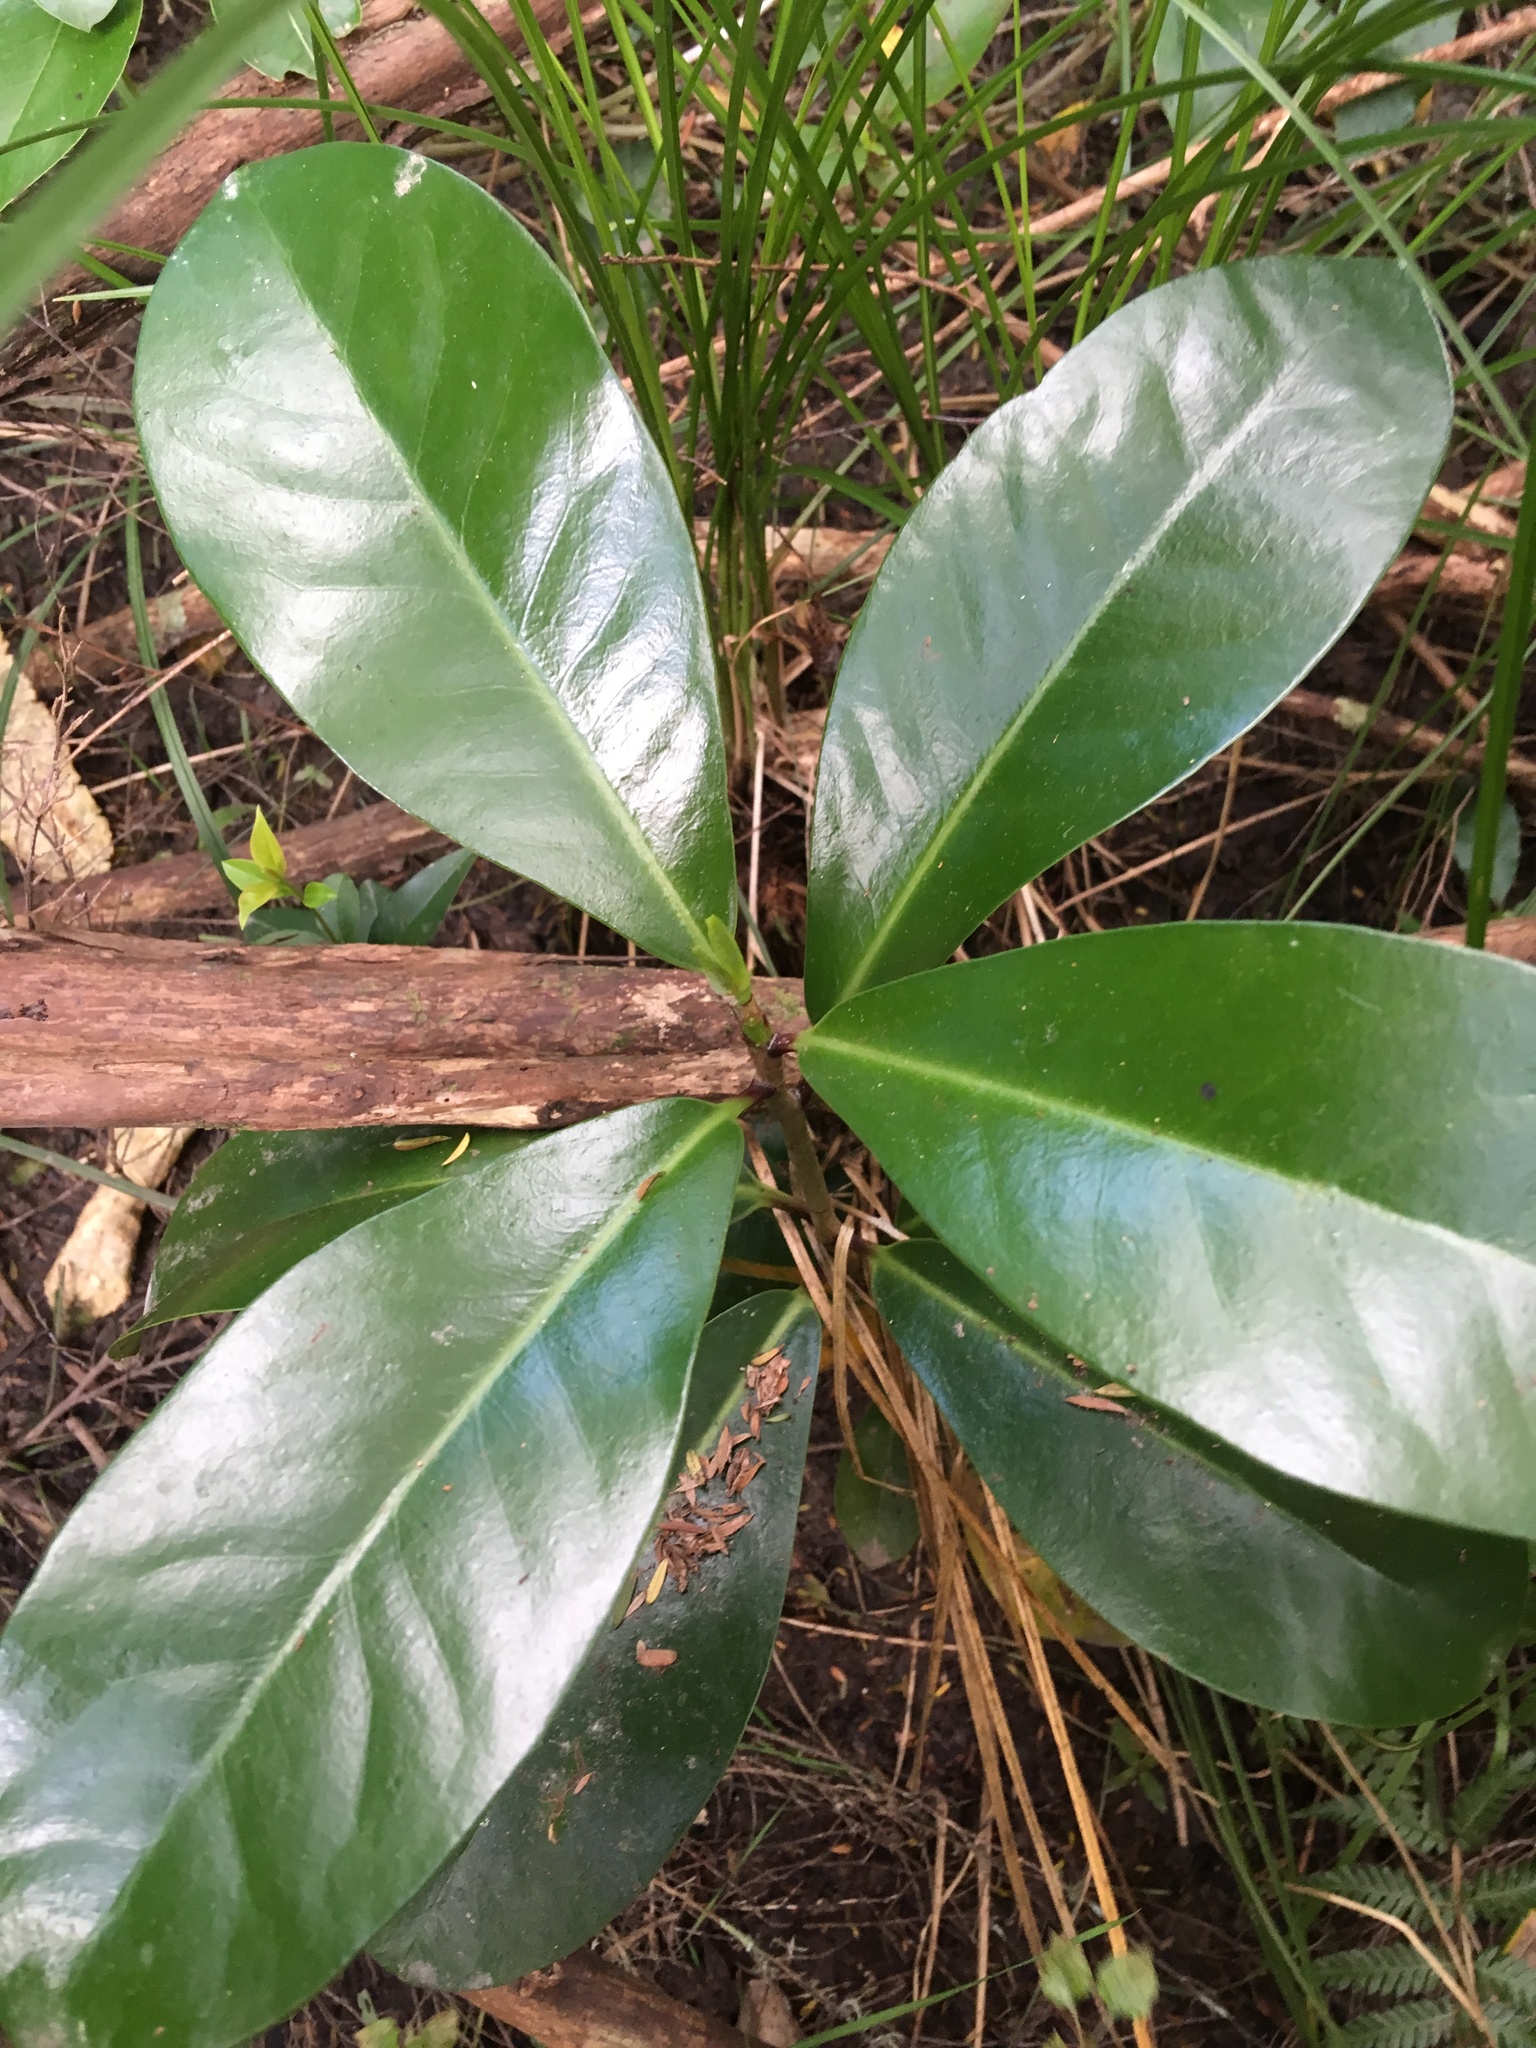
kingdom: Plantae
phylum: Tracheophyta
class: Magnoliopsida
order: Cucurbitales
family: Corynocarpaceae
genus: Corynocarpus
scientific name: Corynocarpus laevigatus
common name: New zealand laurel
